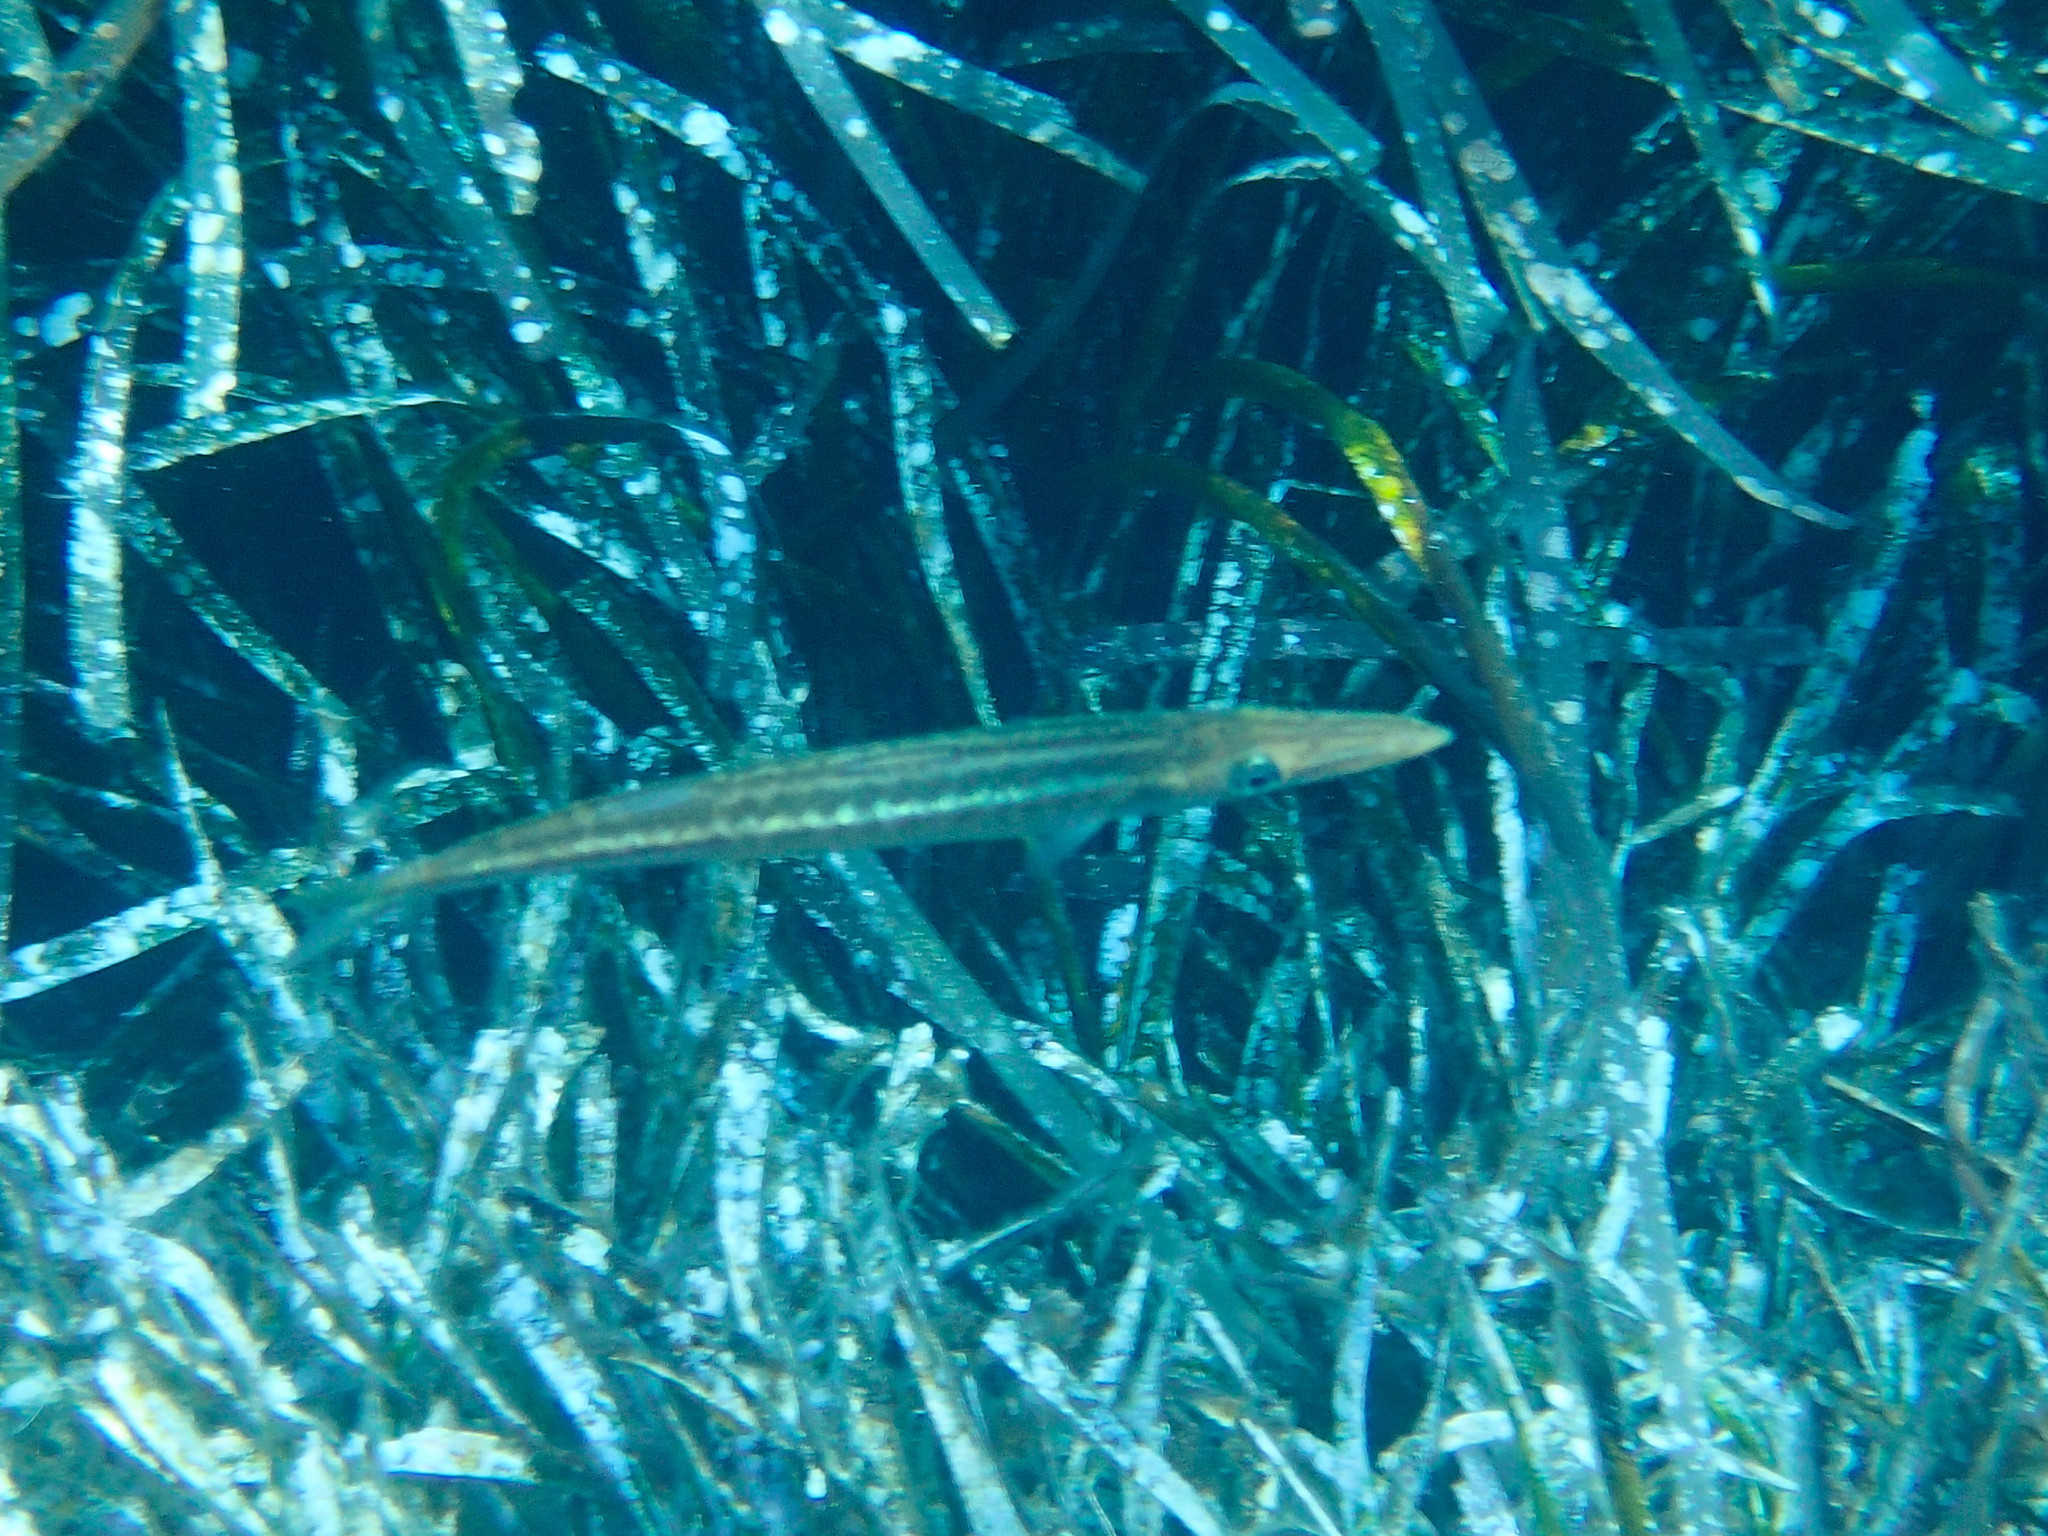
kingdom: Animalia
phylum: Chordata
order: Perciformes
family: Sphyraenidae
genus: Sphyraena
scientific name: Sphyraena
